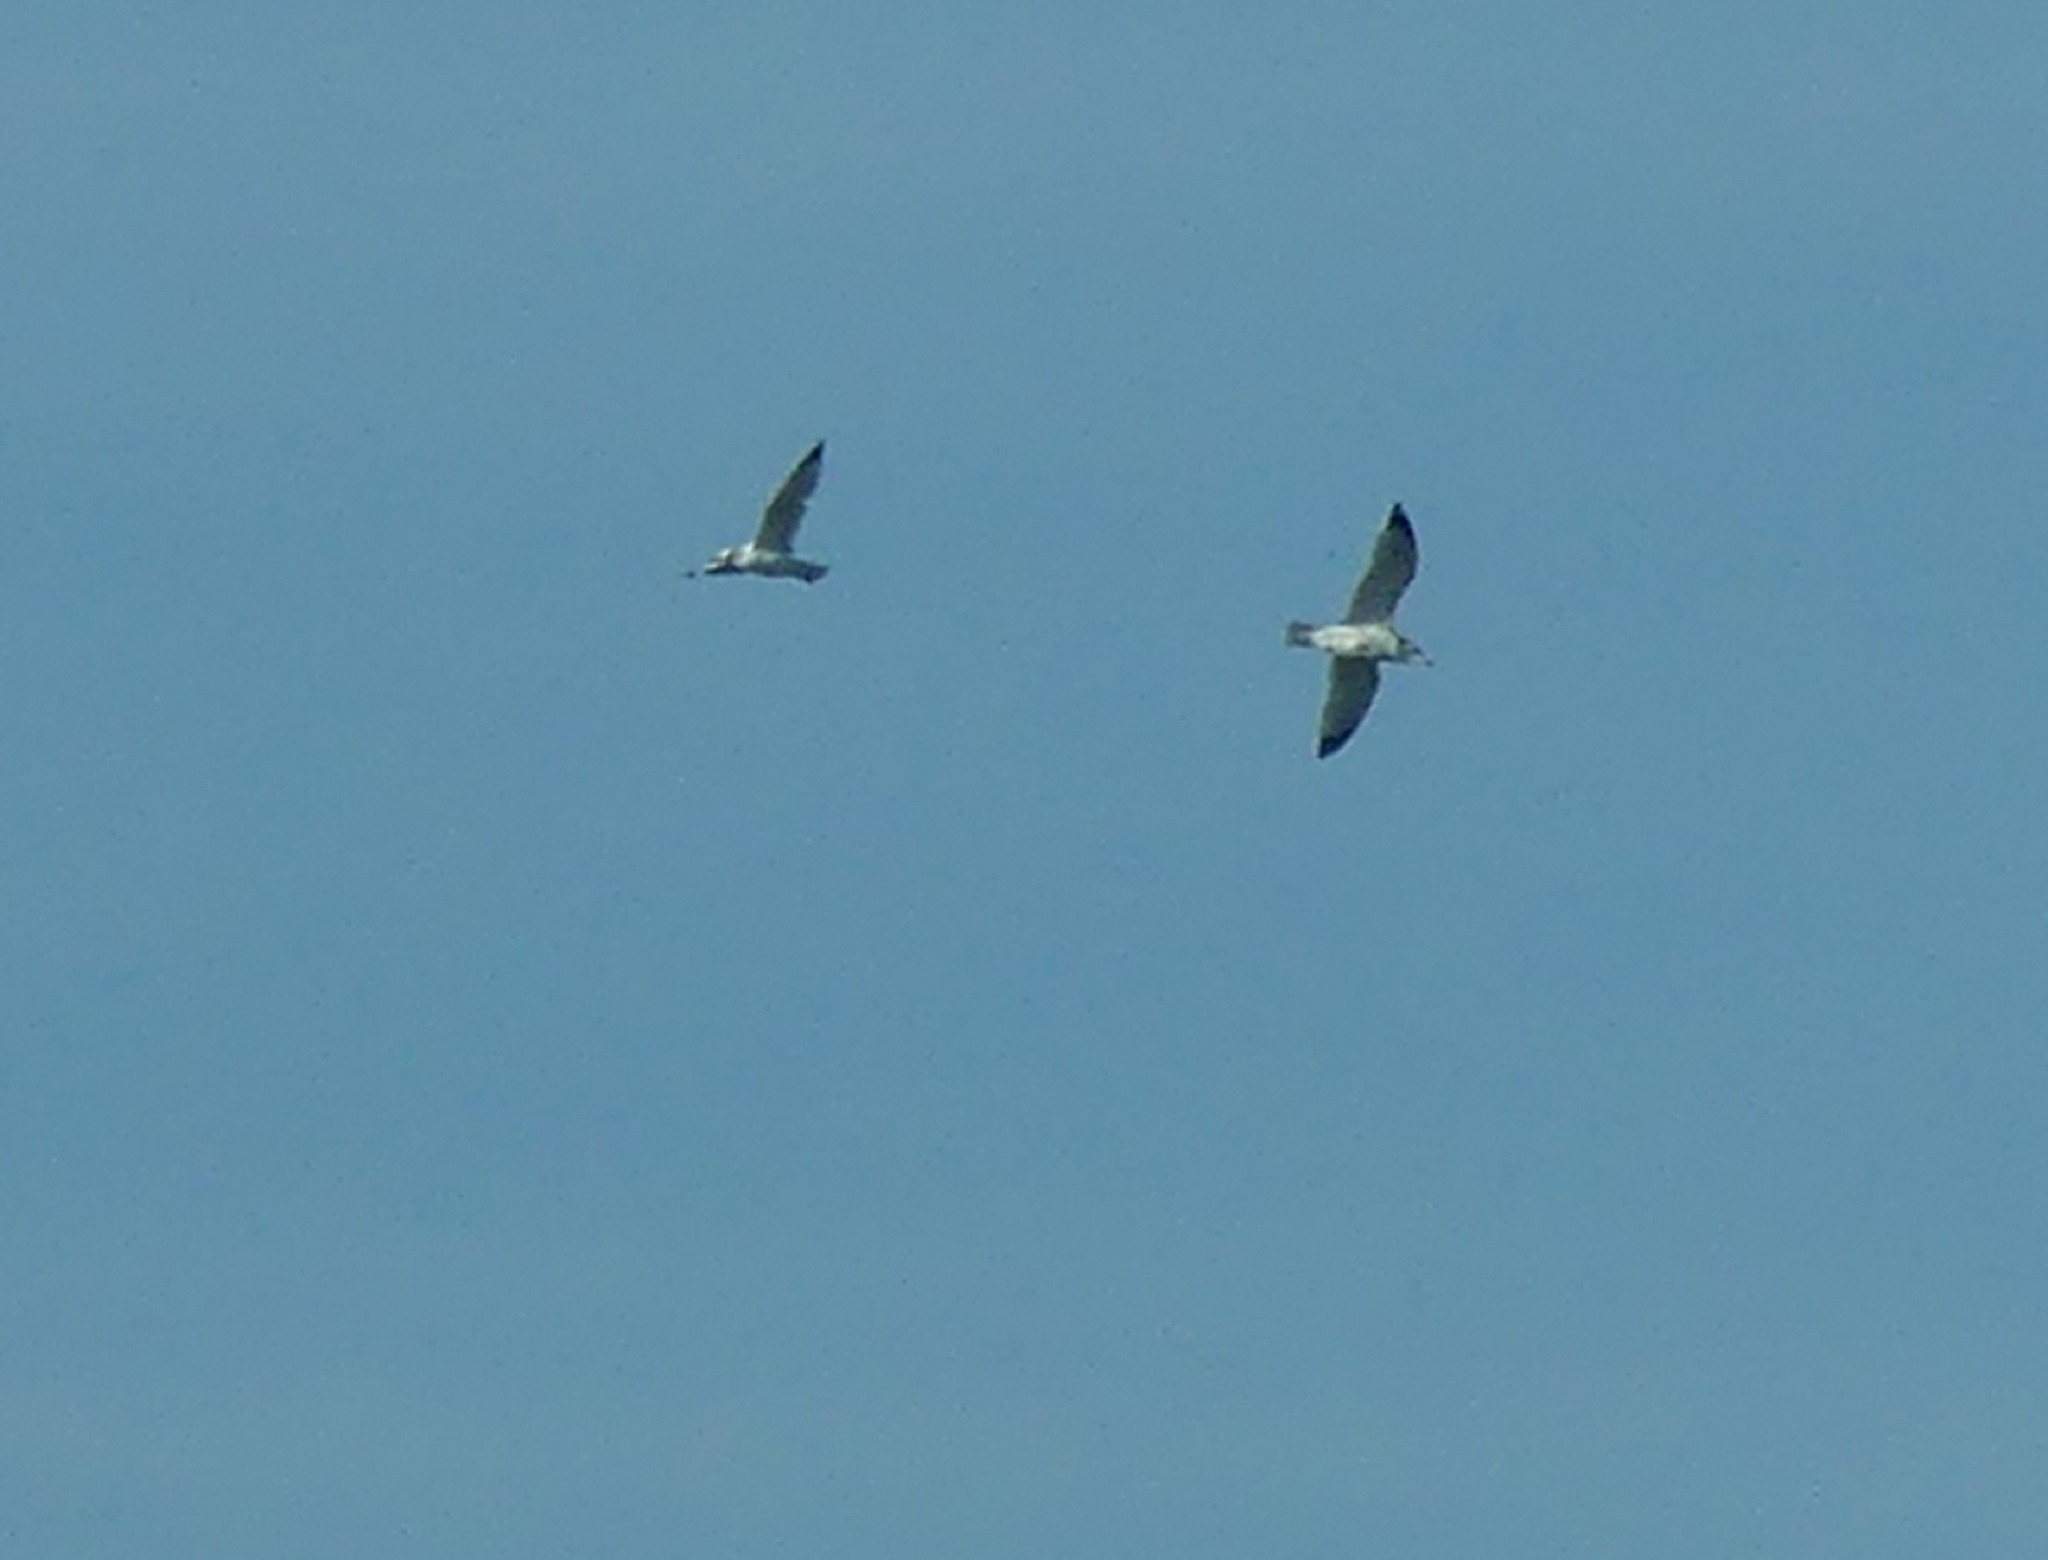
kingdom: Animalia
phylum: Chordata
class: Aves
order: Charadriiformes
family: Laridae
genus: Larus
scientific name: Larus delawarensis
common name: Ring-billed gull
